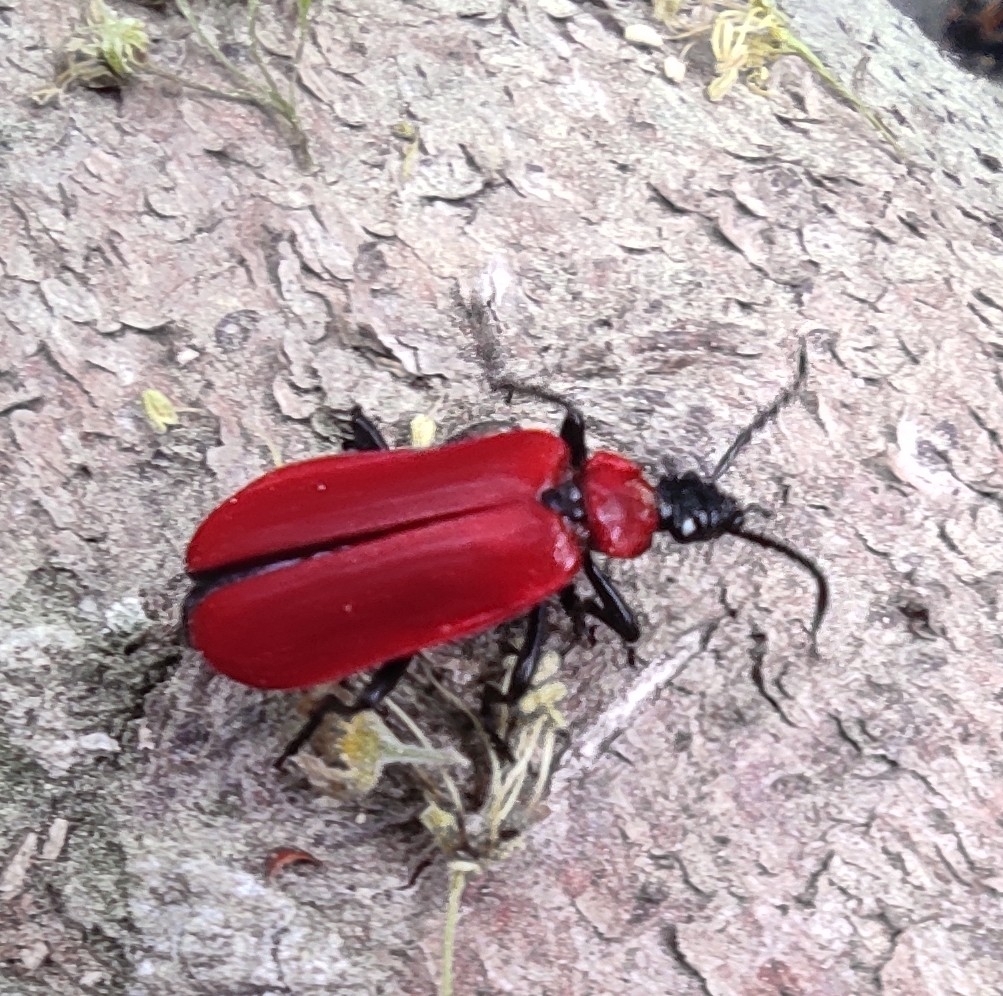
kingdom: Animalia
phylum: Arthropoda
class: Insecta
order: Coleoptera
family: Pyrochroidae
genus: Pyrochroa
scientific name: Pyrochroa coccinea
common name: Black-headed cardinal beetle
